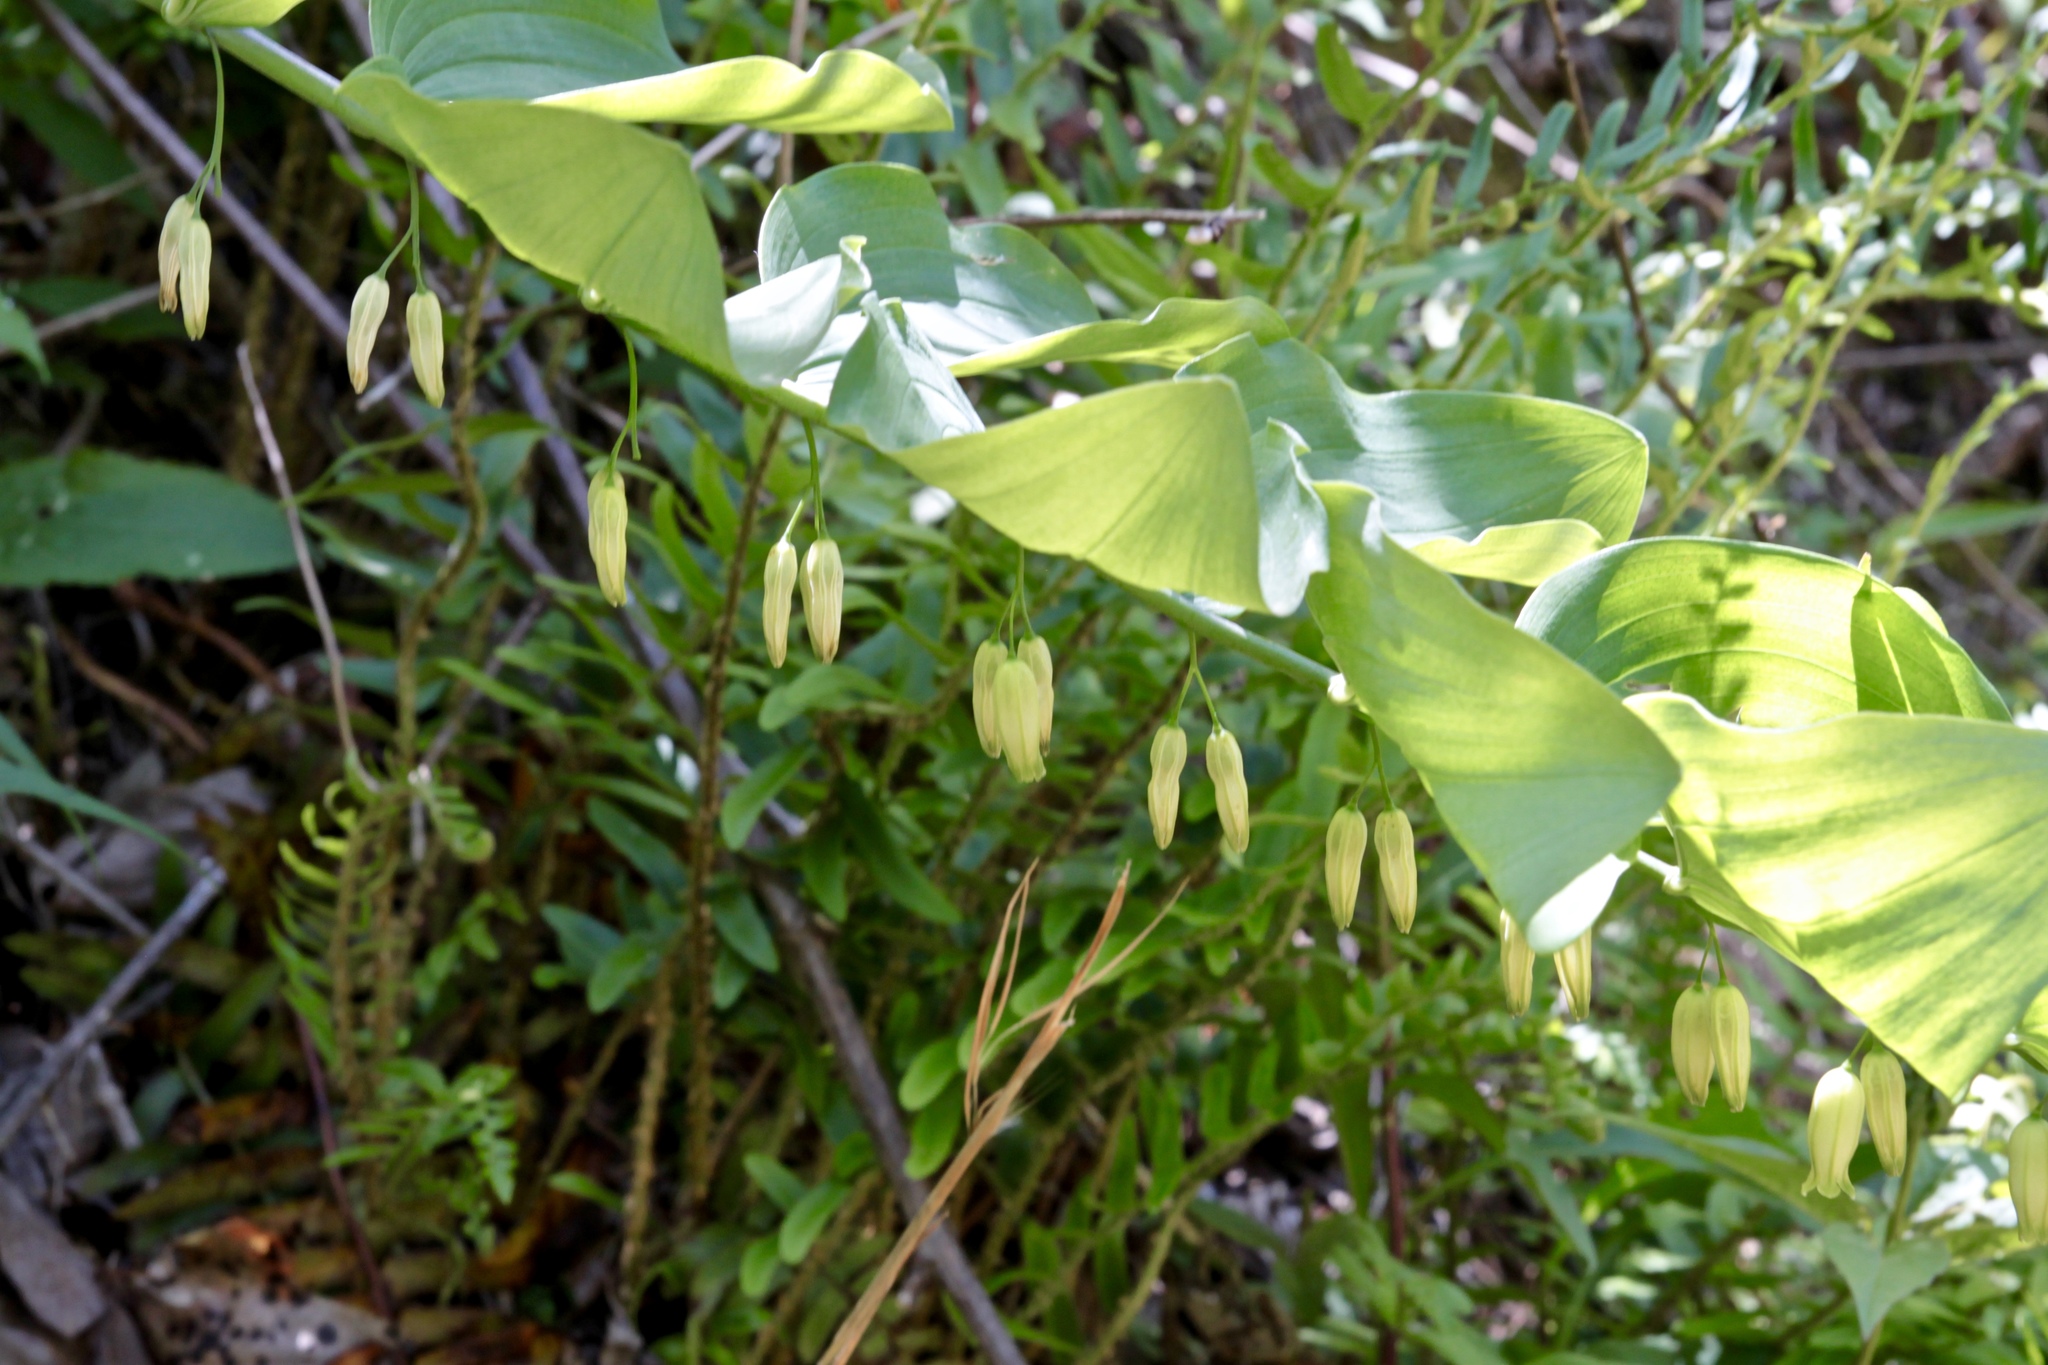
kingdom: Plantae
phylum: Tracheophyta
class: Liliopsida
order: Asparagales
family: Asparagaceae
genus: Polygonatum
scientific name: Polygonatum biflorum
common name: American solomon's-seal
